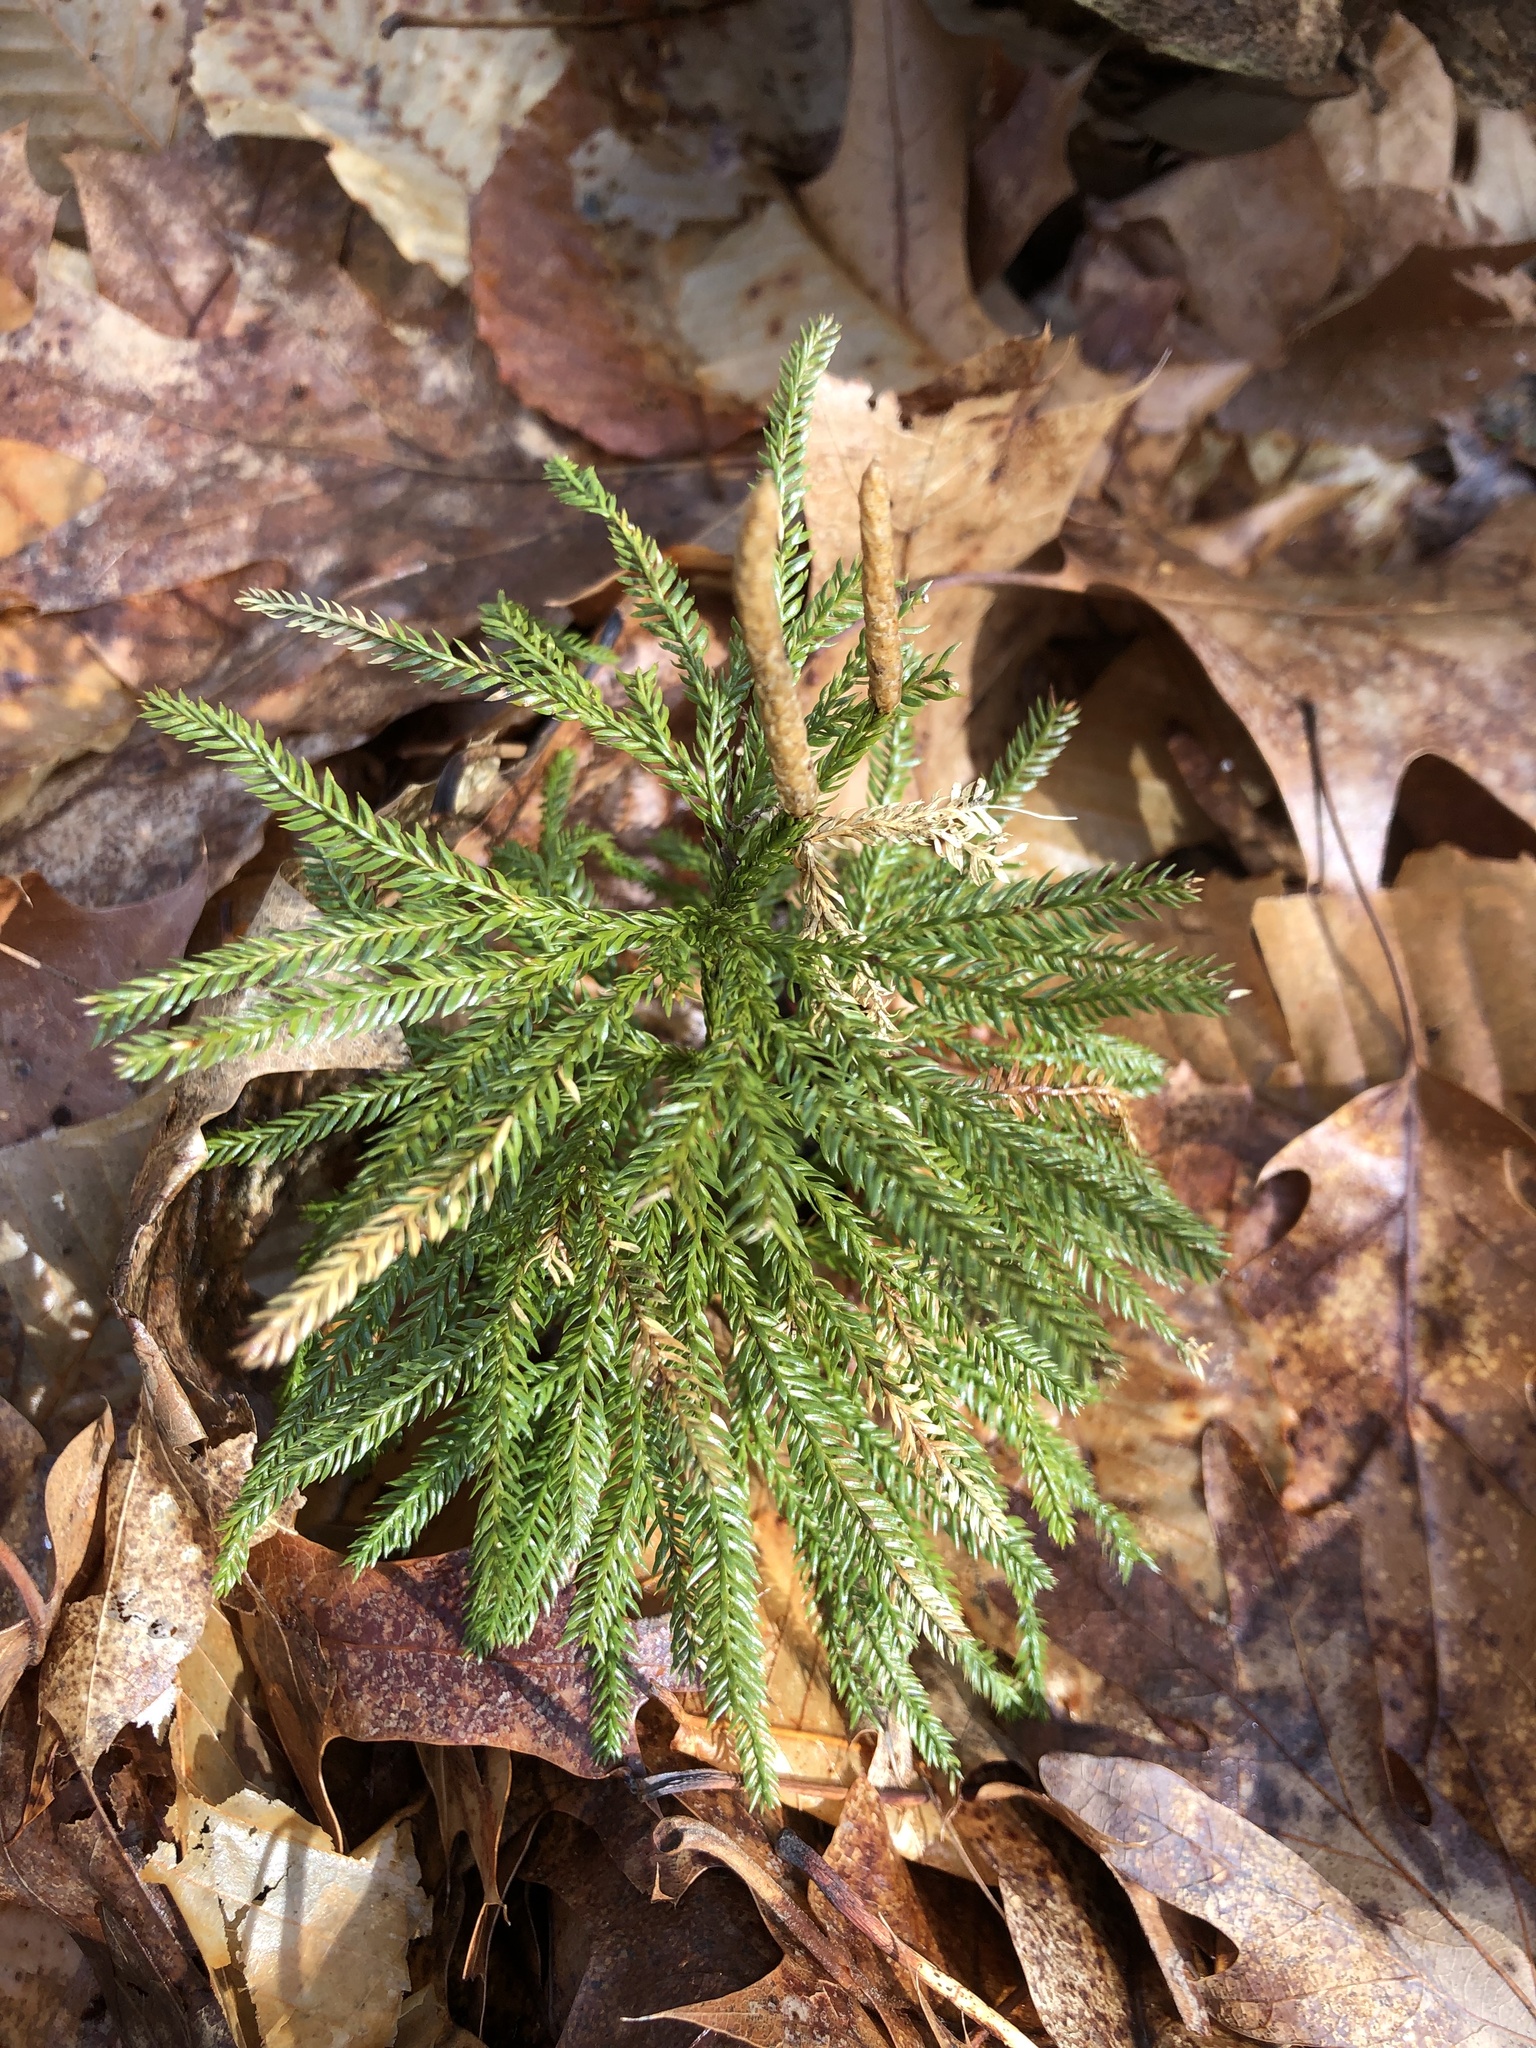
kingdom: Plantae
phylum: Tracheophyta
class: Lycopodiopsida
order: Lycopodiales
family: Lycopodiaceae
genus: Dendrolycopodium
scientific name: Dendrolycopodium obscurum
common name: Common ground-pine
